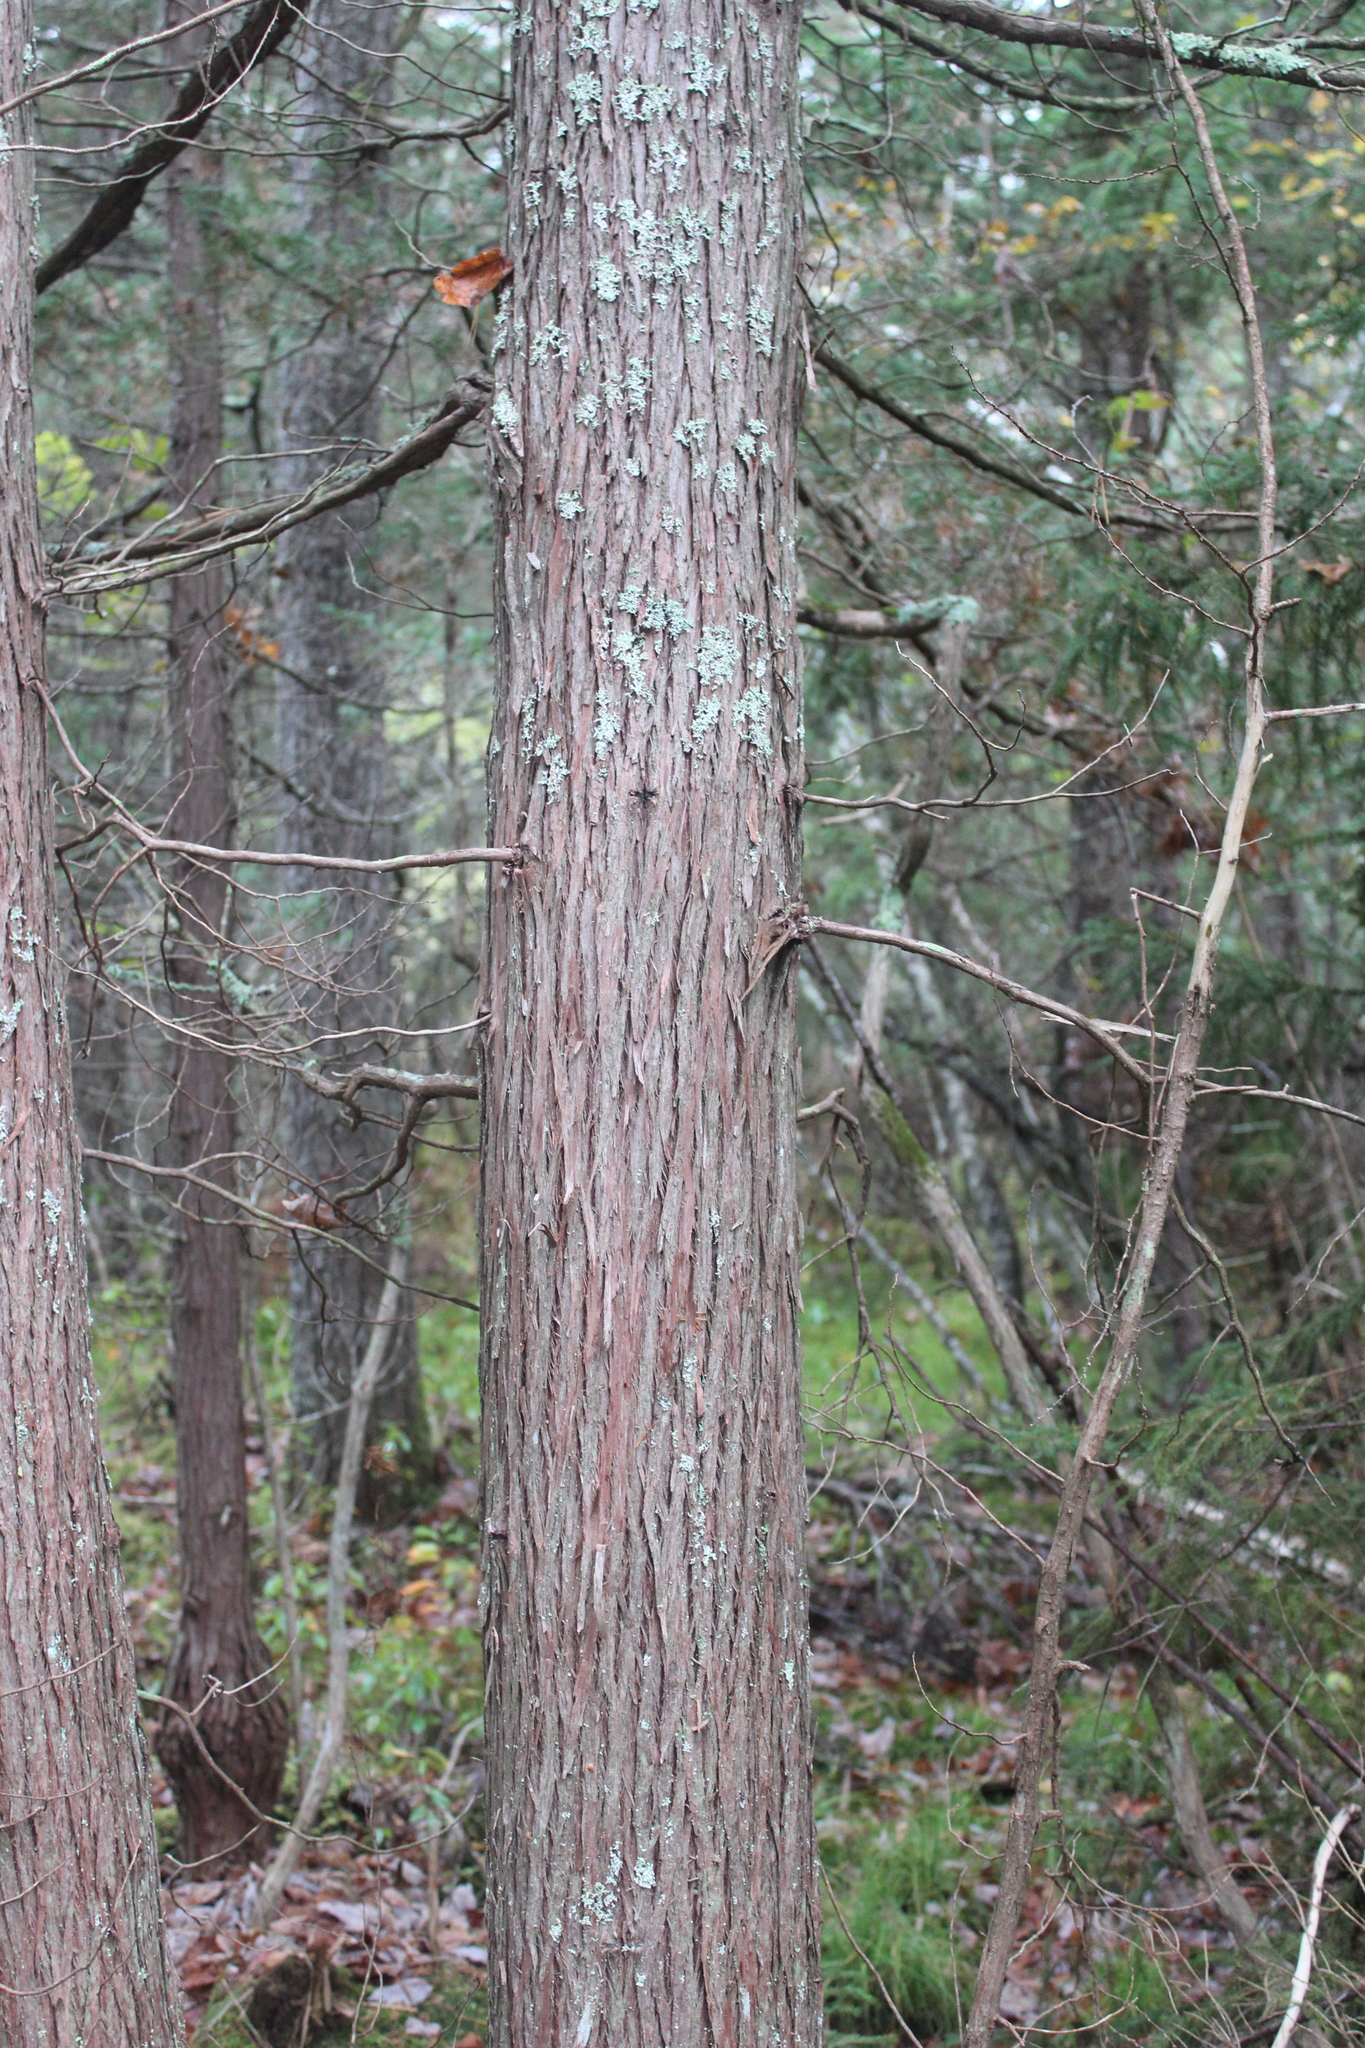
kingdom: Plantae
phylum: Tracheophyta
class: Pinopsida
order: Pinales
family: Cupressaceae
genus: Chamaecyparis
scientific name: Chamaecyparis thyoides
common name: Atlantic white cedar
